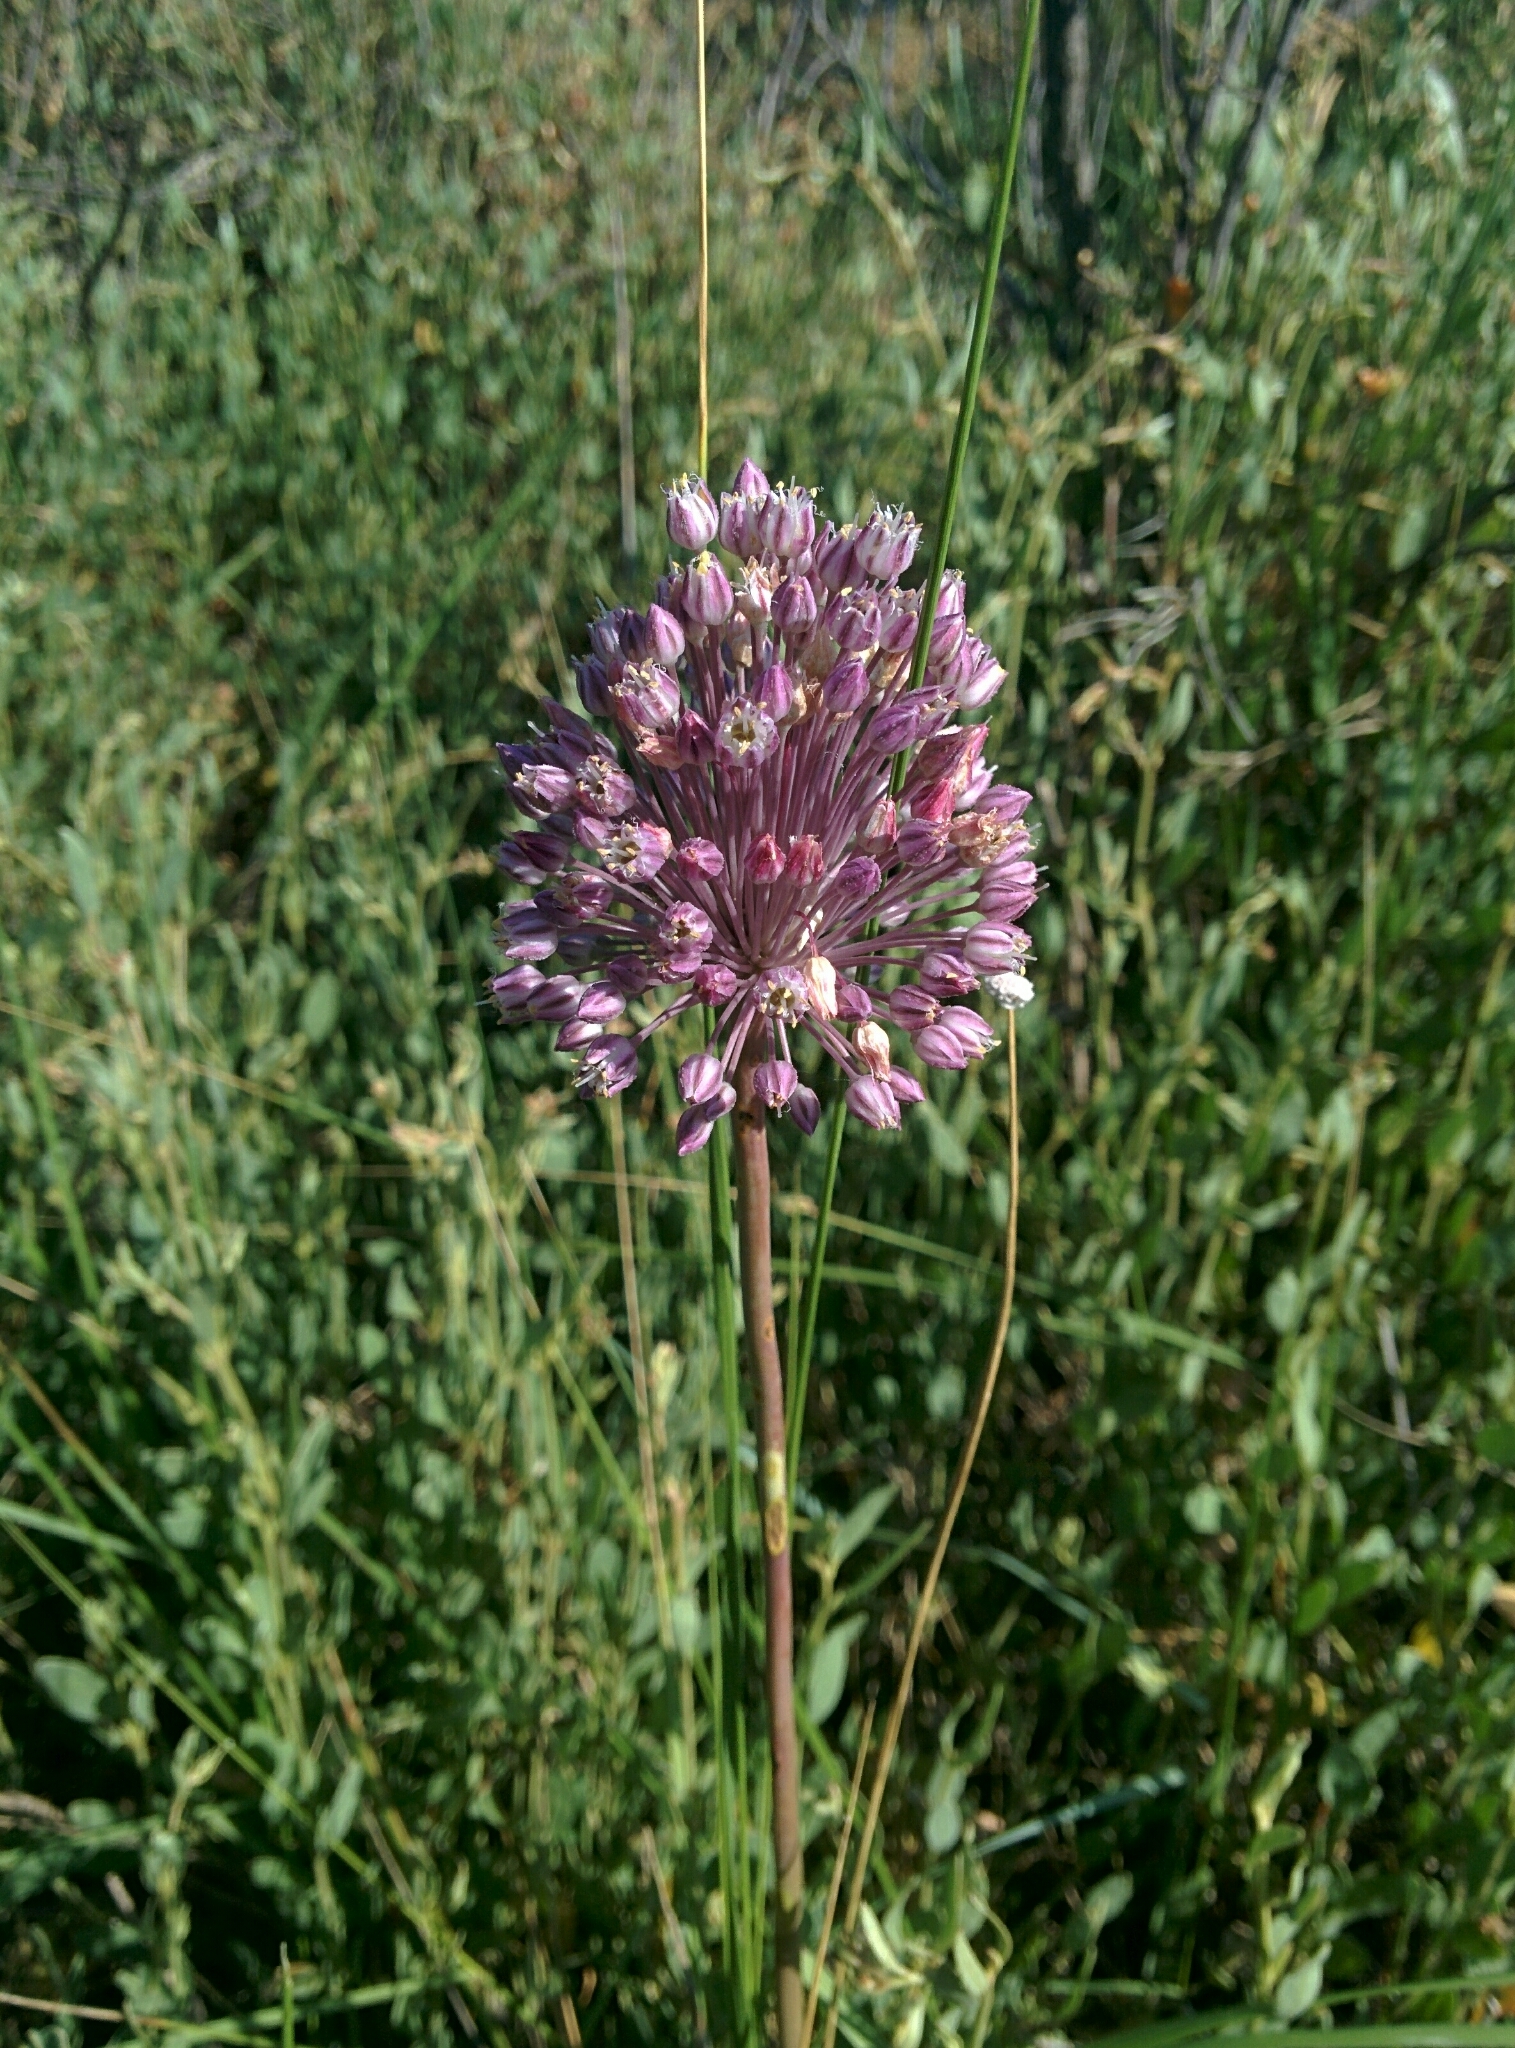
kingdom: Plantae
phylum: Tracheophyta
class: Liliopsida
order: Asparagales
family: Amaryllidaceae
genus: Allium
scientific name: Allium
